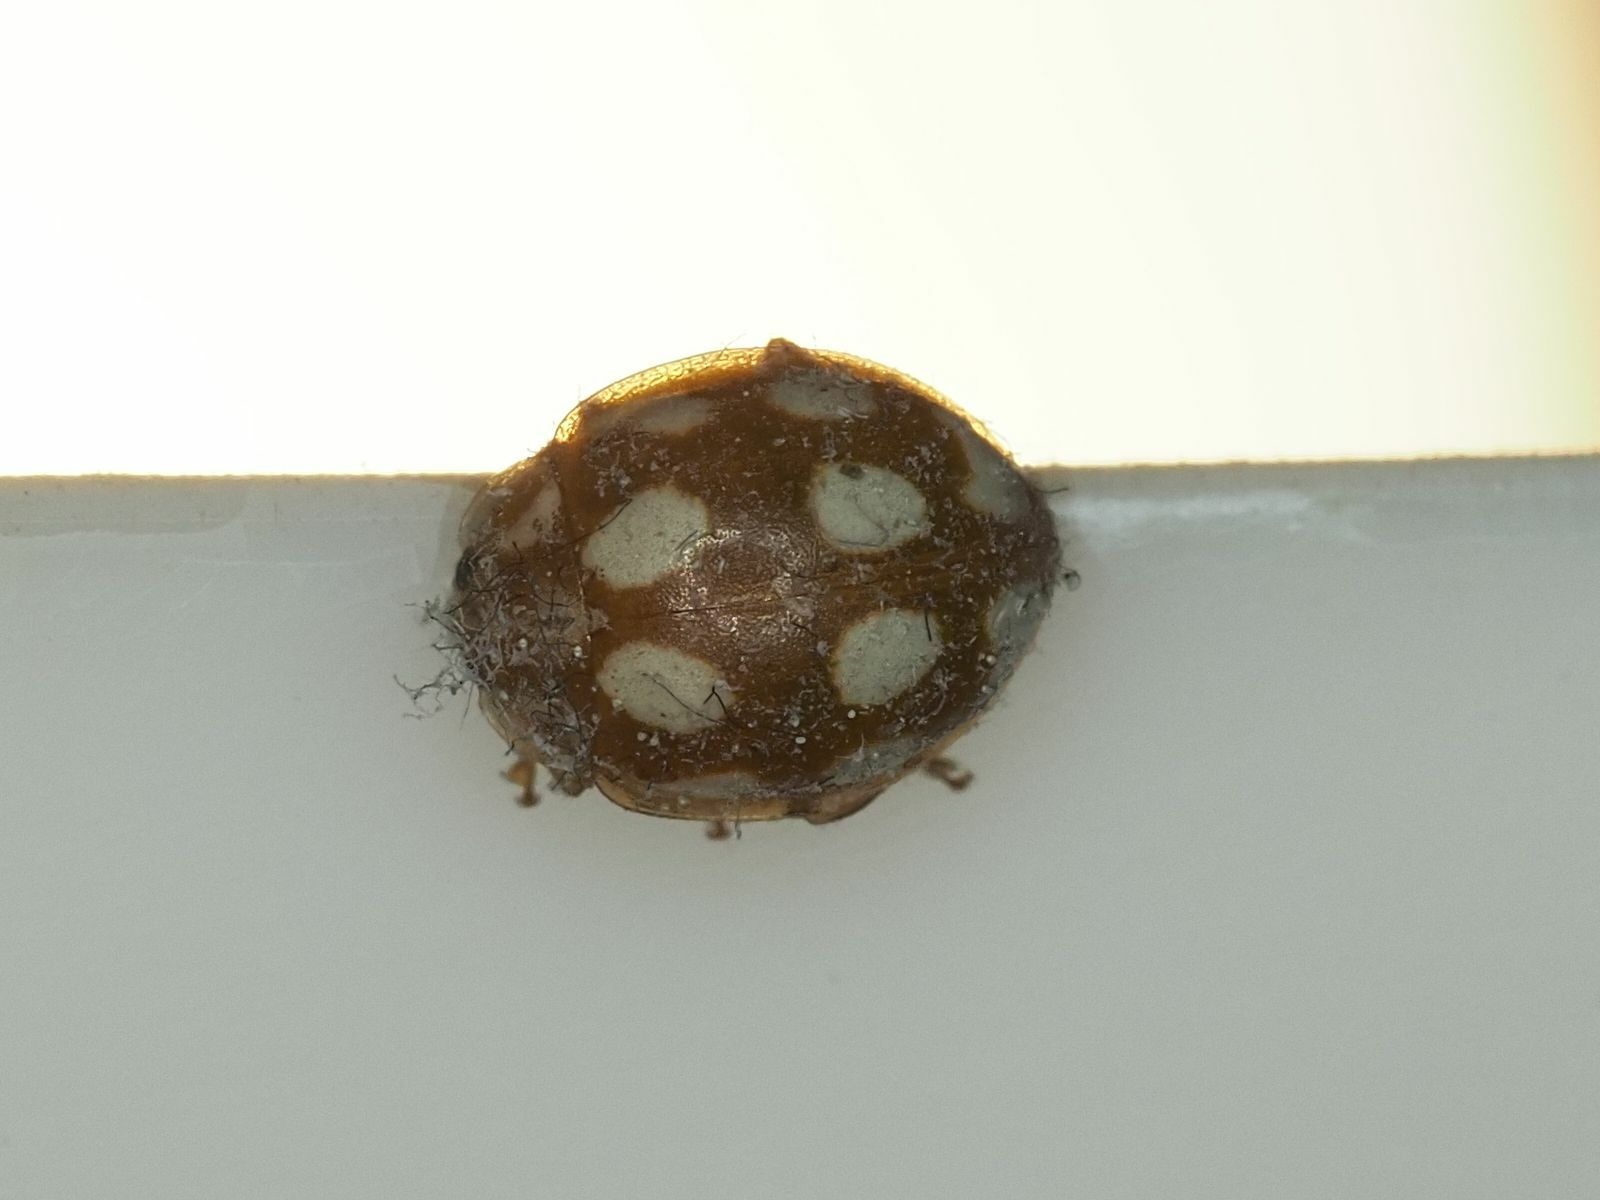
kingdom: Animalia
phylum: Arthropoda
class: Insecta
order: Coleoptera
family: Coccinellidae
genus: Calvia
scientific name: Calvia decemguttata
